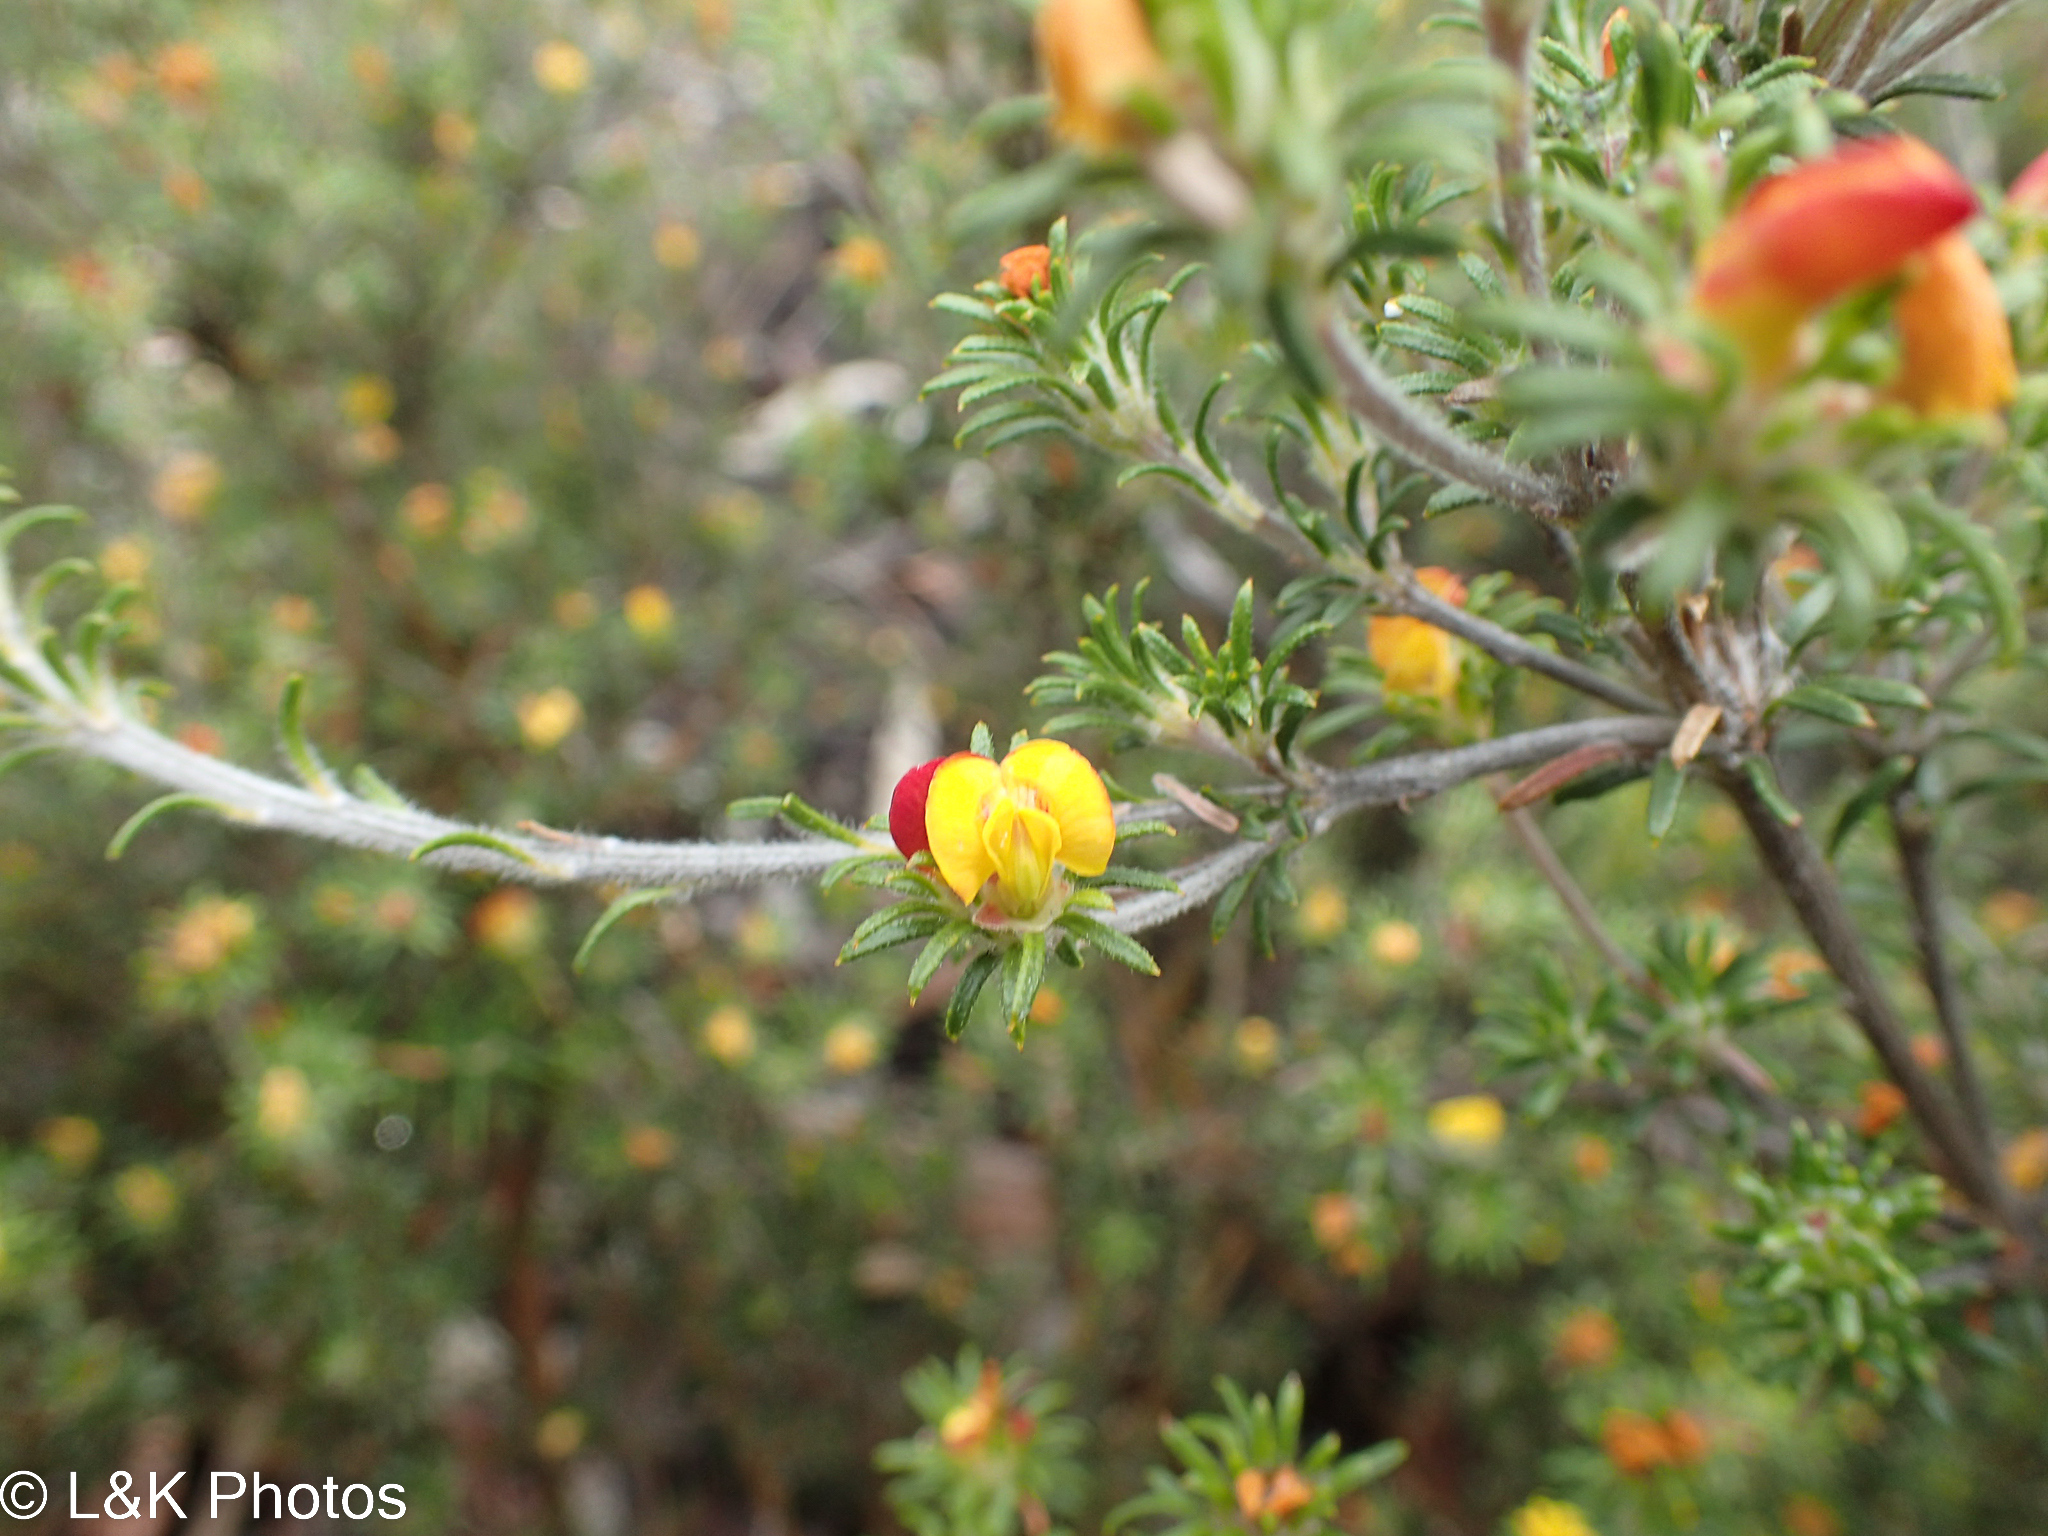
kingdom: Plantae
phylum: Tracheophyta
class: Magnoliopsida
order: Fabales
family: Fabaceae
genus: Phyllota
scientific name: Phyllota pleurandroides
